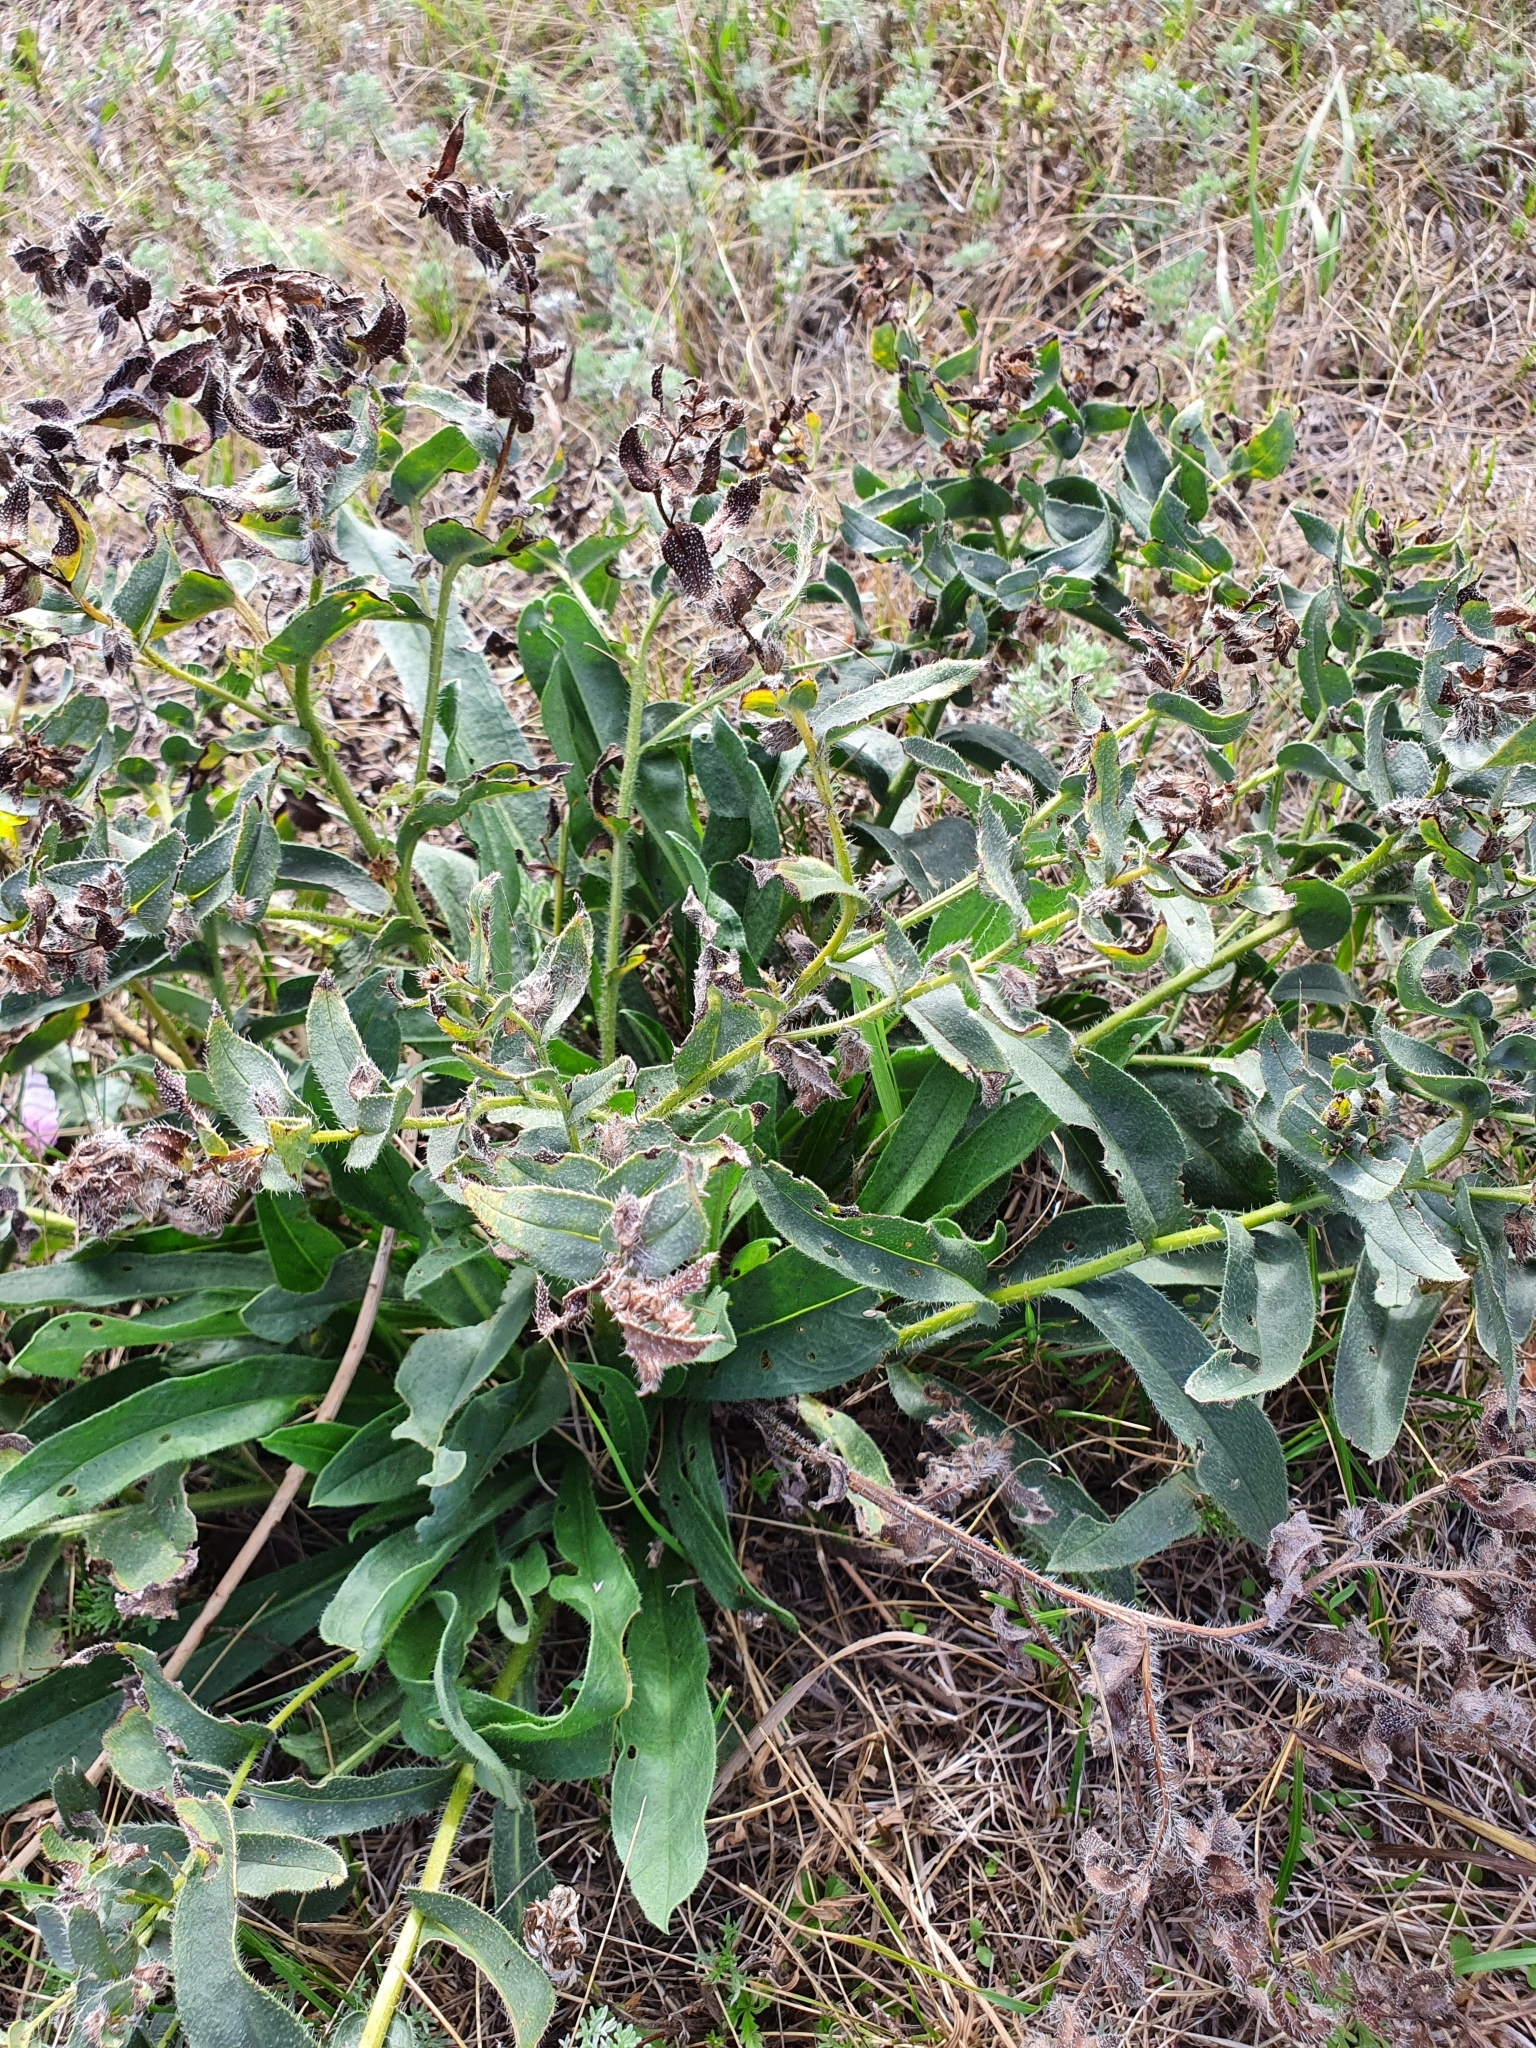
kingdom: Plantae
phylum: Tracheophyta
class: Magnoliopsida
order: Boraginales
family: Boraginaceae
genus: Nonea
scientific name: Nonea pulla
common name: Brown nonea
